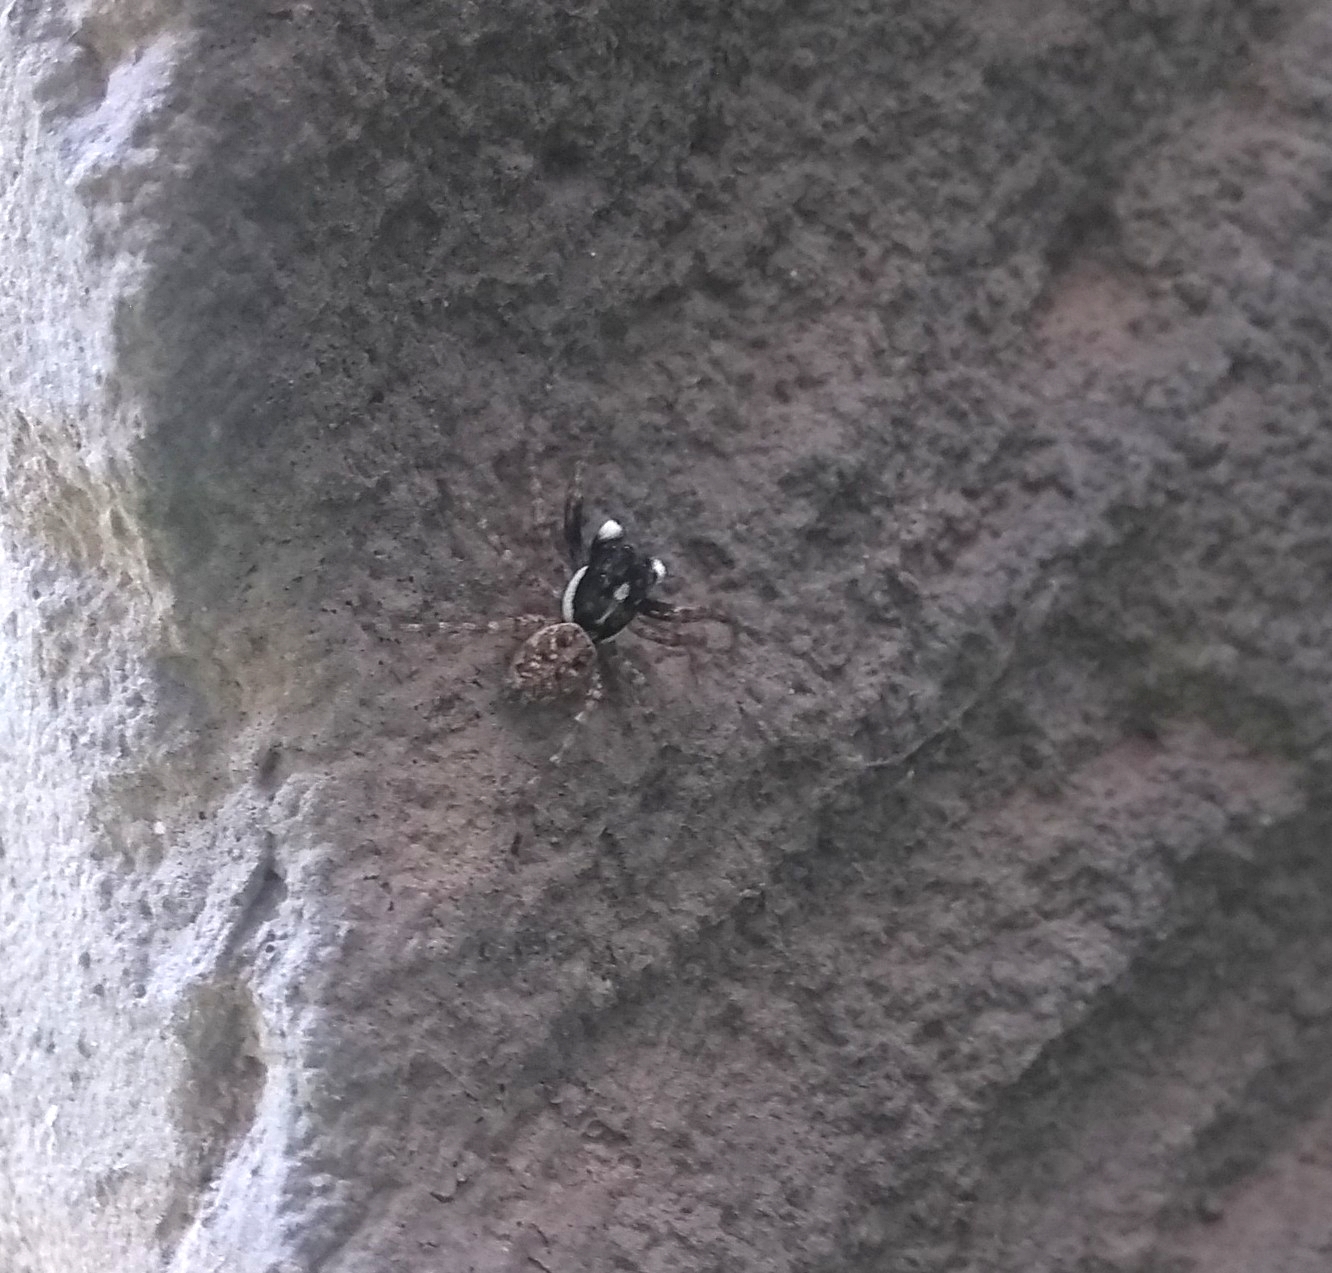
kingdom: Animalia
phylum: Arthropoda
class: Arachnida
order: Araneae
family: Salticidae
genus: Menemerus
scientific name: Menemerus semilimbatus
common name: Jumping spider
